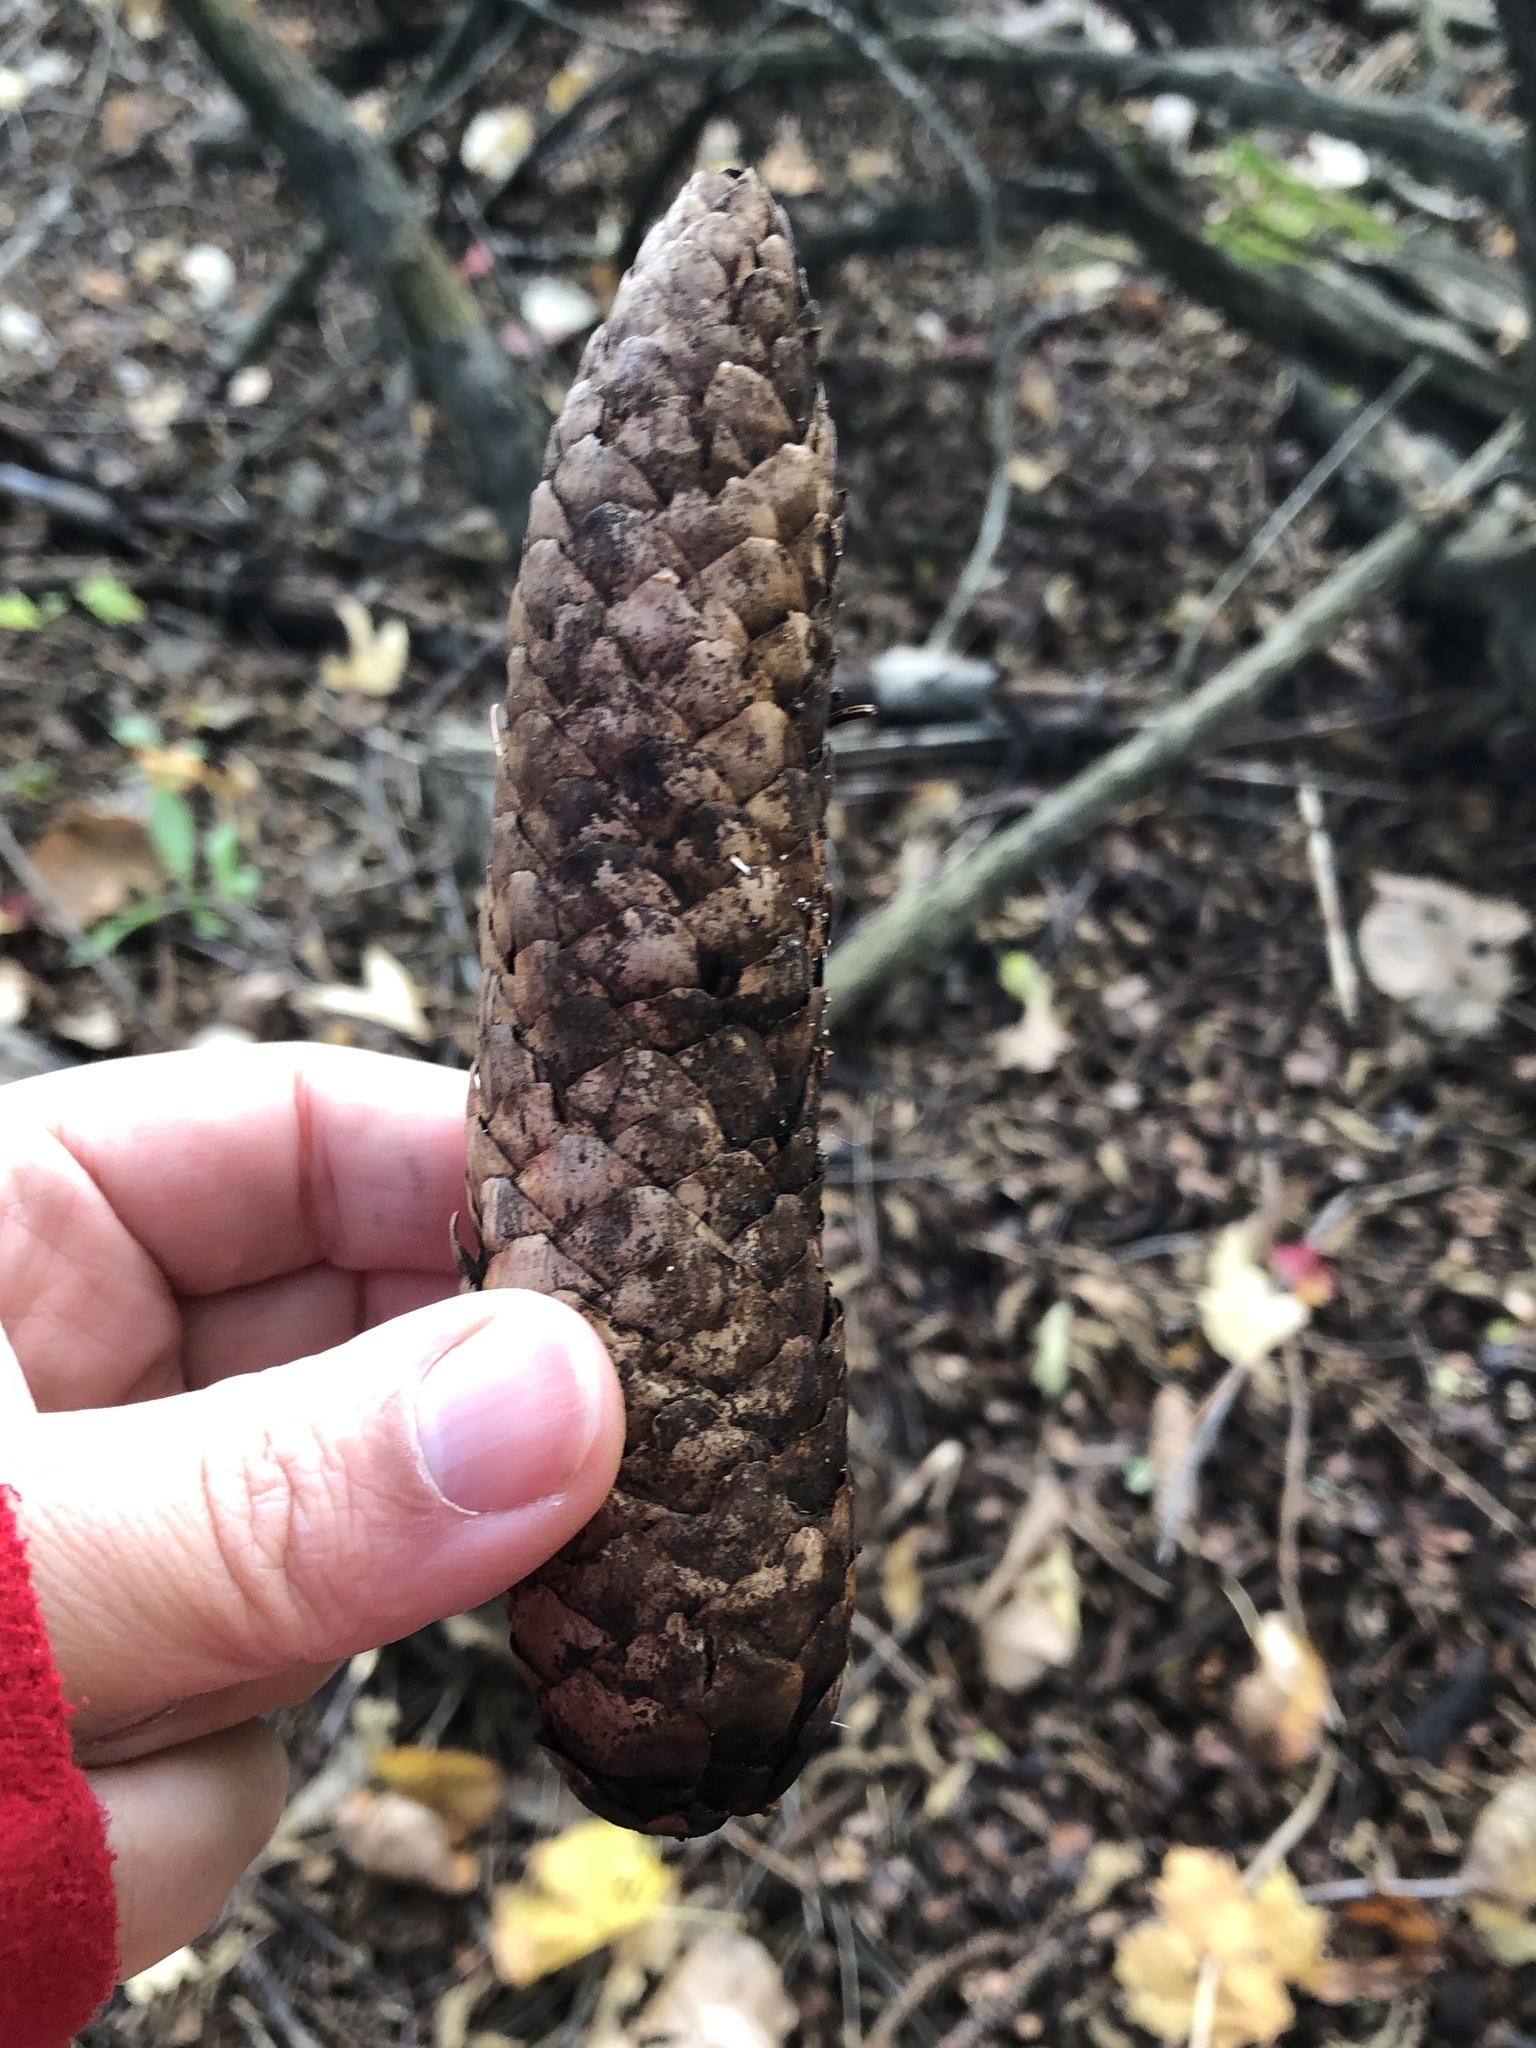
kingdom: Plantae
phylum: Tracheophyta
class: Pinopsida
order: Pinales
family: Pinaceae
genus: Picea
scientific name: Picea abies
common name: Norway spruce
